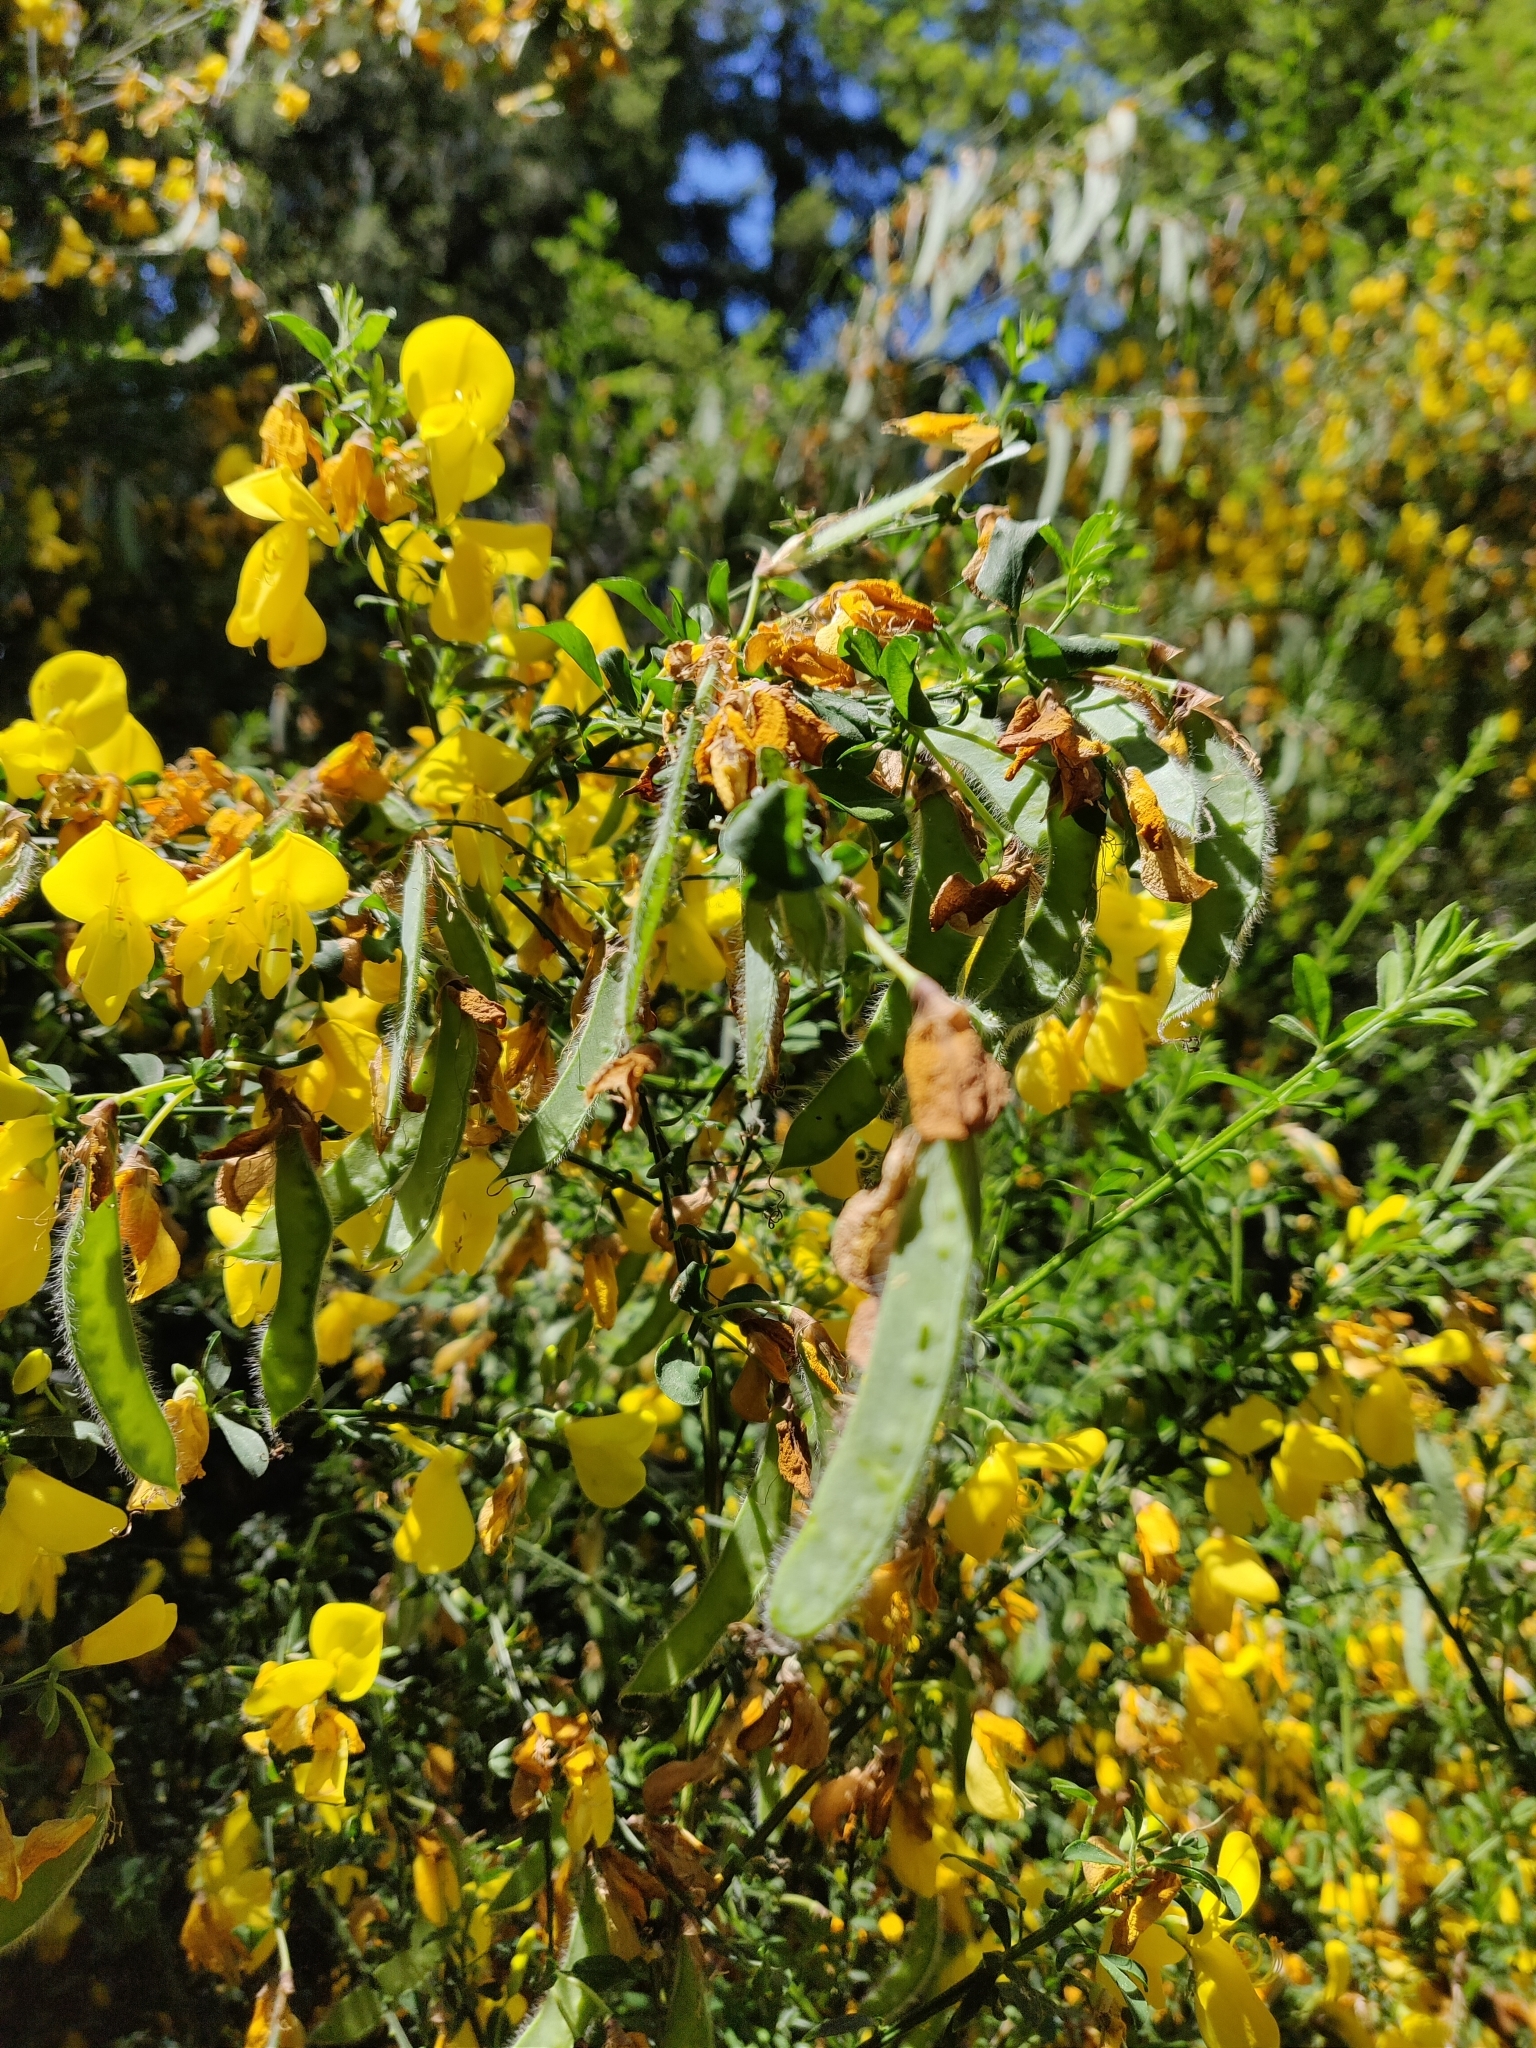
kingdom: Plantae
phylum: Tracheophyta
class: Magnoliopsida
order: Fabales
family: Fabaceae
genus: Cytisus
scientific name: Cytisus scoparius
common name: Scotch broom
